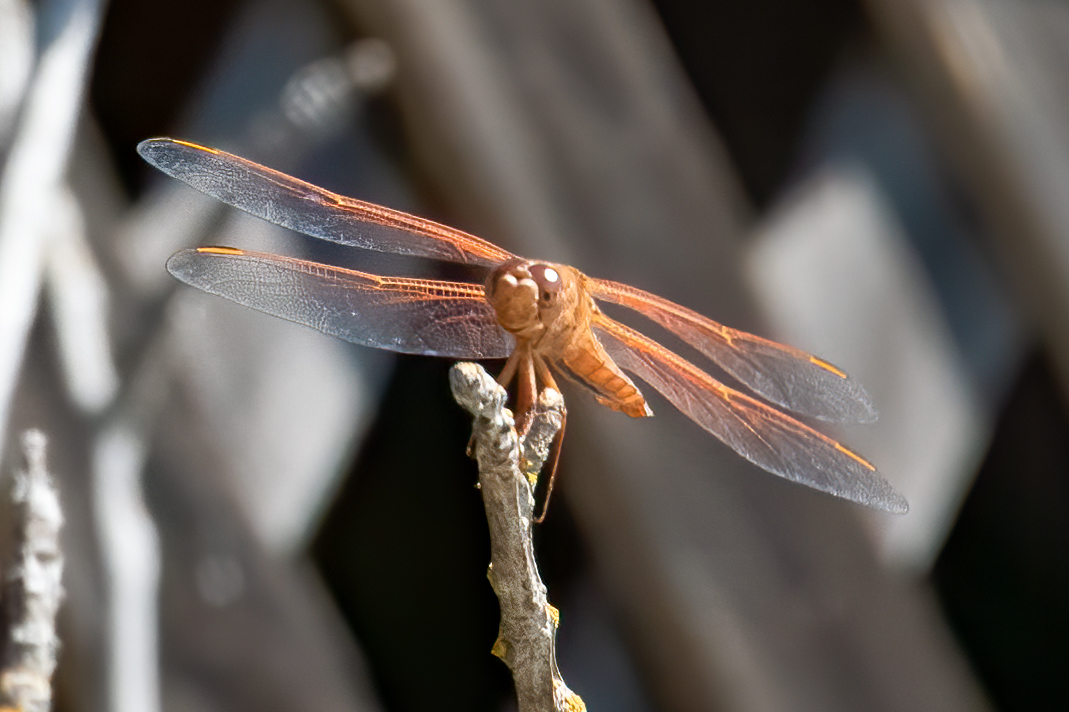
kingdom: Animalia
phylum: Arthropoda
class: Insecta
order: Odonata
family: Libellulidae
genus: Libellula
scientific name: Libellula saturata
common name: Flame skimmer
